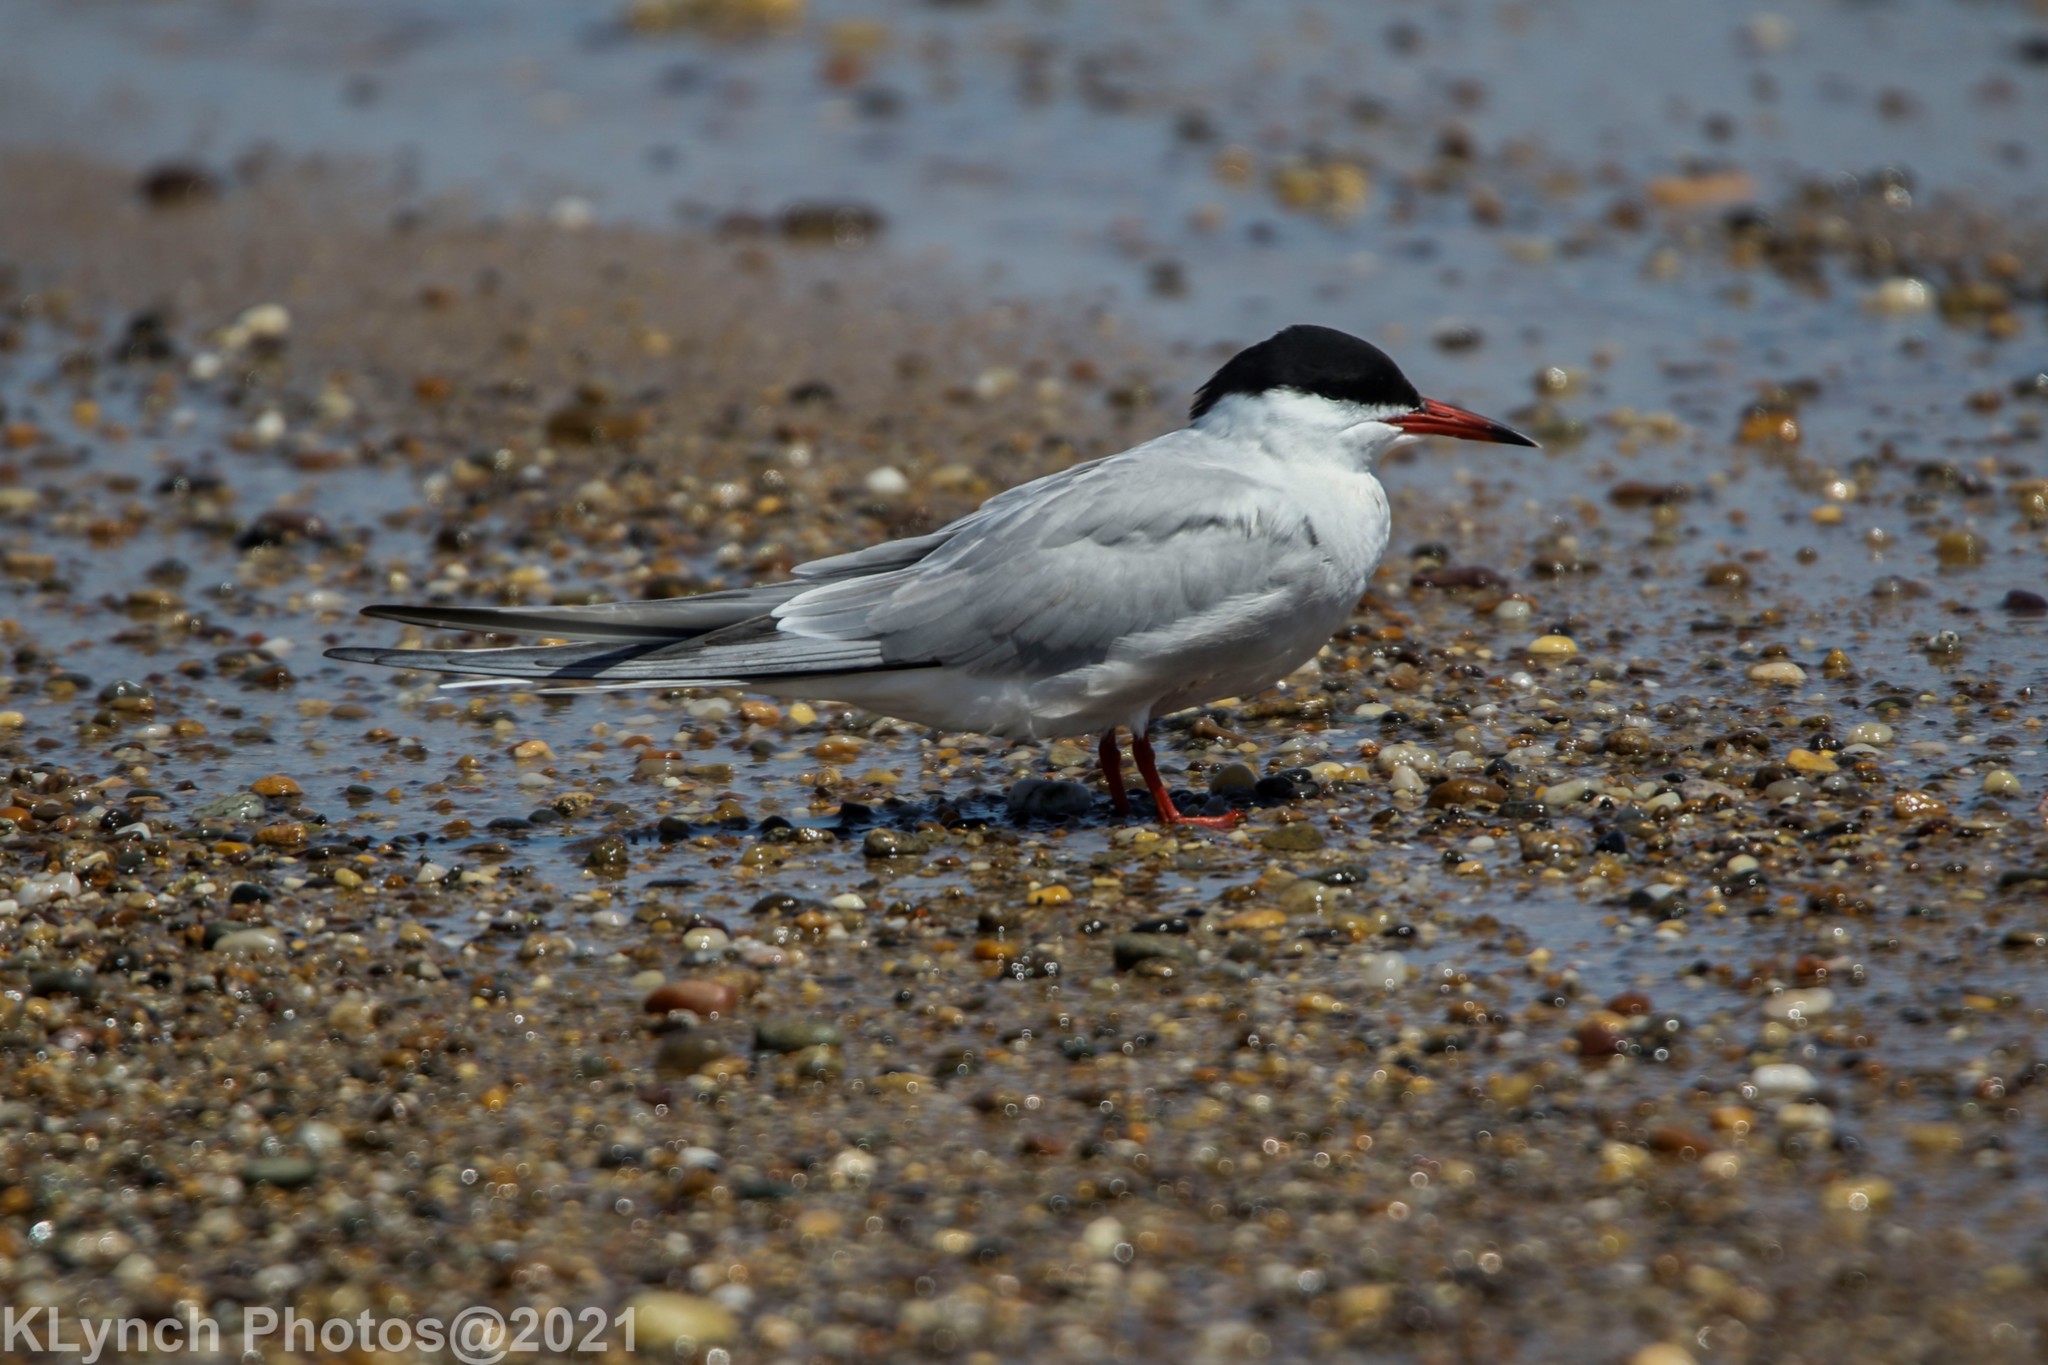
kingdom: Animalia
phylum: Chordata
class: Aves
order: Charadriiformes
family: Laridae
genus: Sterna
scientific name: Sterna hirundo
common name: Common tern
